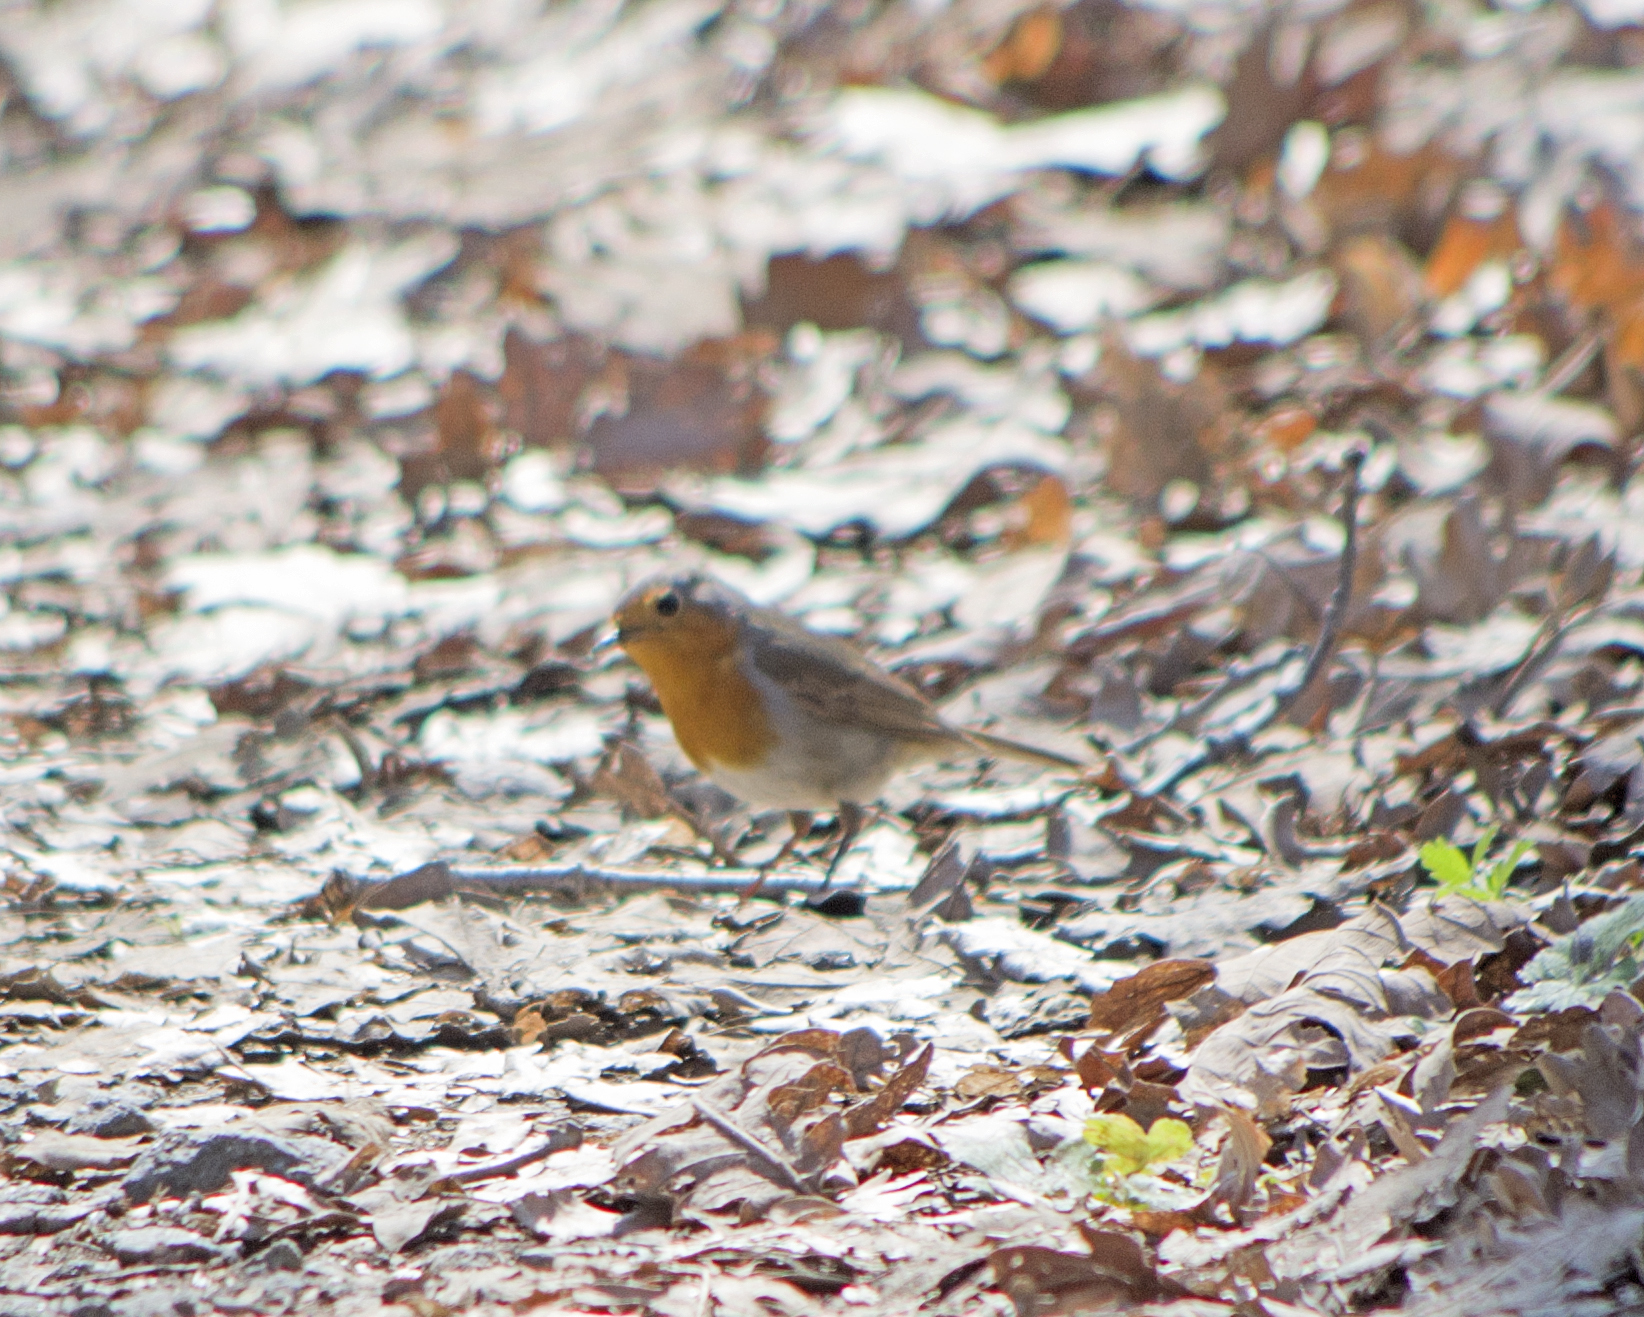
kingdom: Animalia
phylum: Chordata
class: Aves
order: Passeriformes
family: Muscicapidae
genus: Erithacus
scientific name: Erithacus rubecula
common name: European robin
